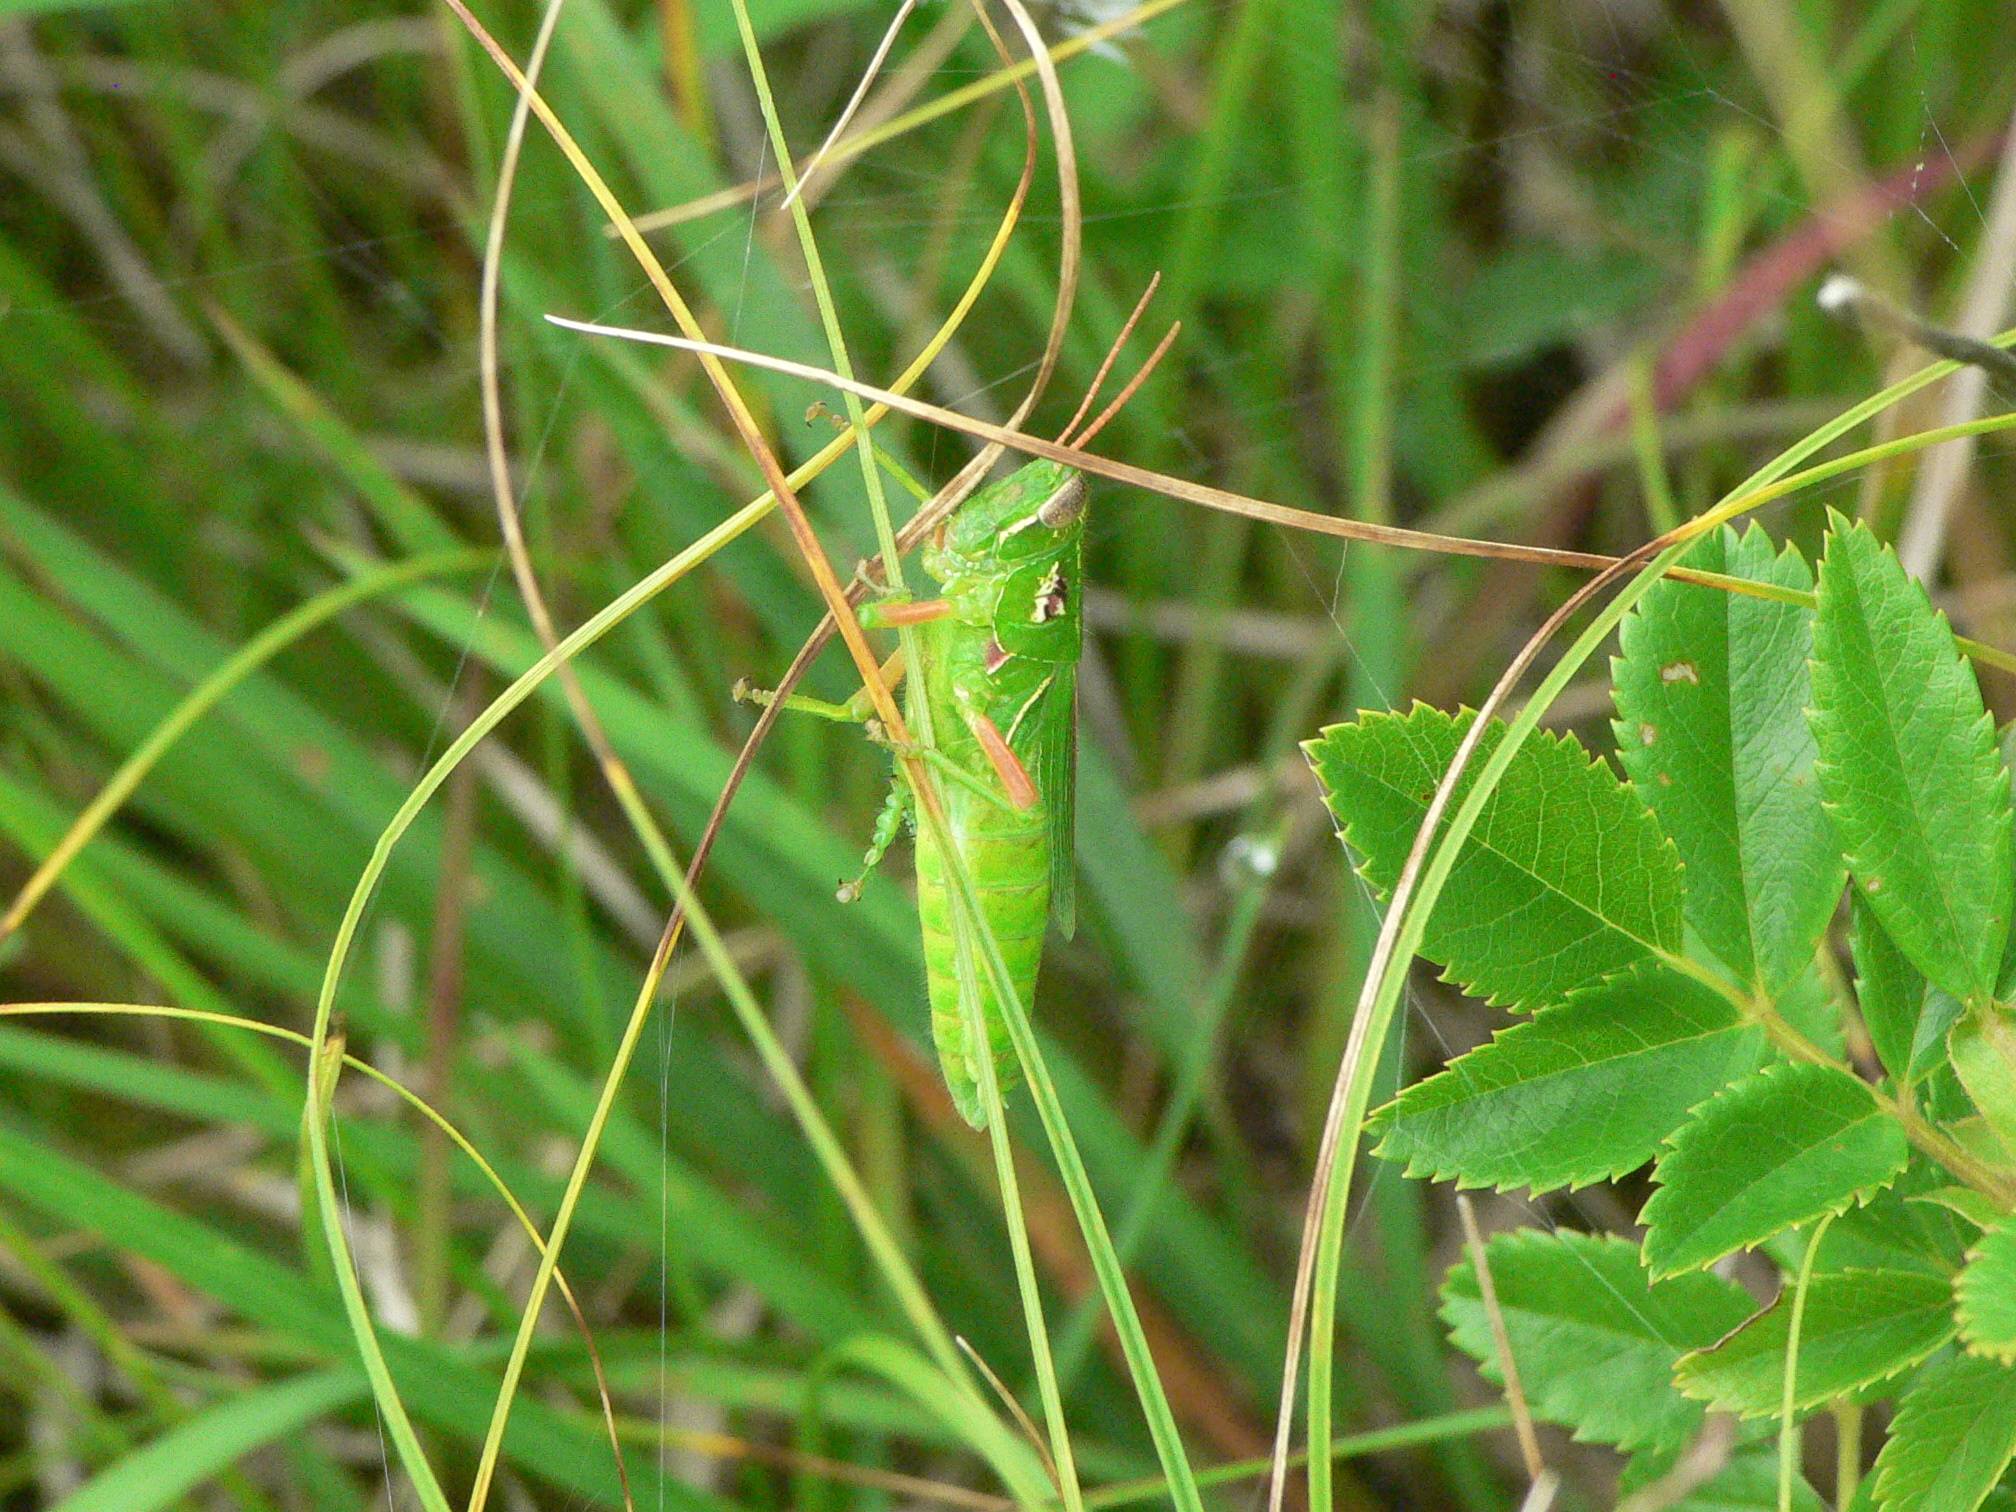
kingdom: Animalia
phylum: Arthropoda
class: Insecta
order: Orthoptera
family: Acrididae
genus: Hesperotettix
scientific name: Hesperotettix viridis
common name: Meadow purple-striped grasshopper
